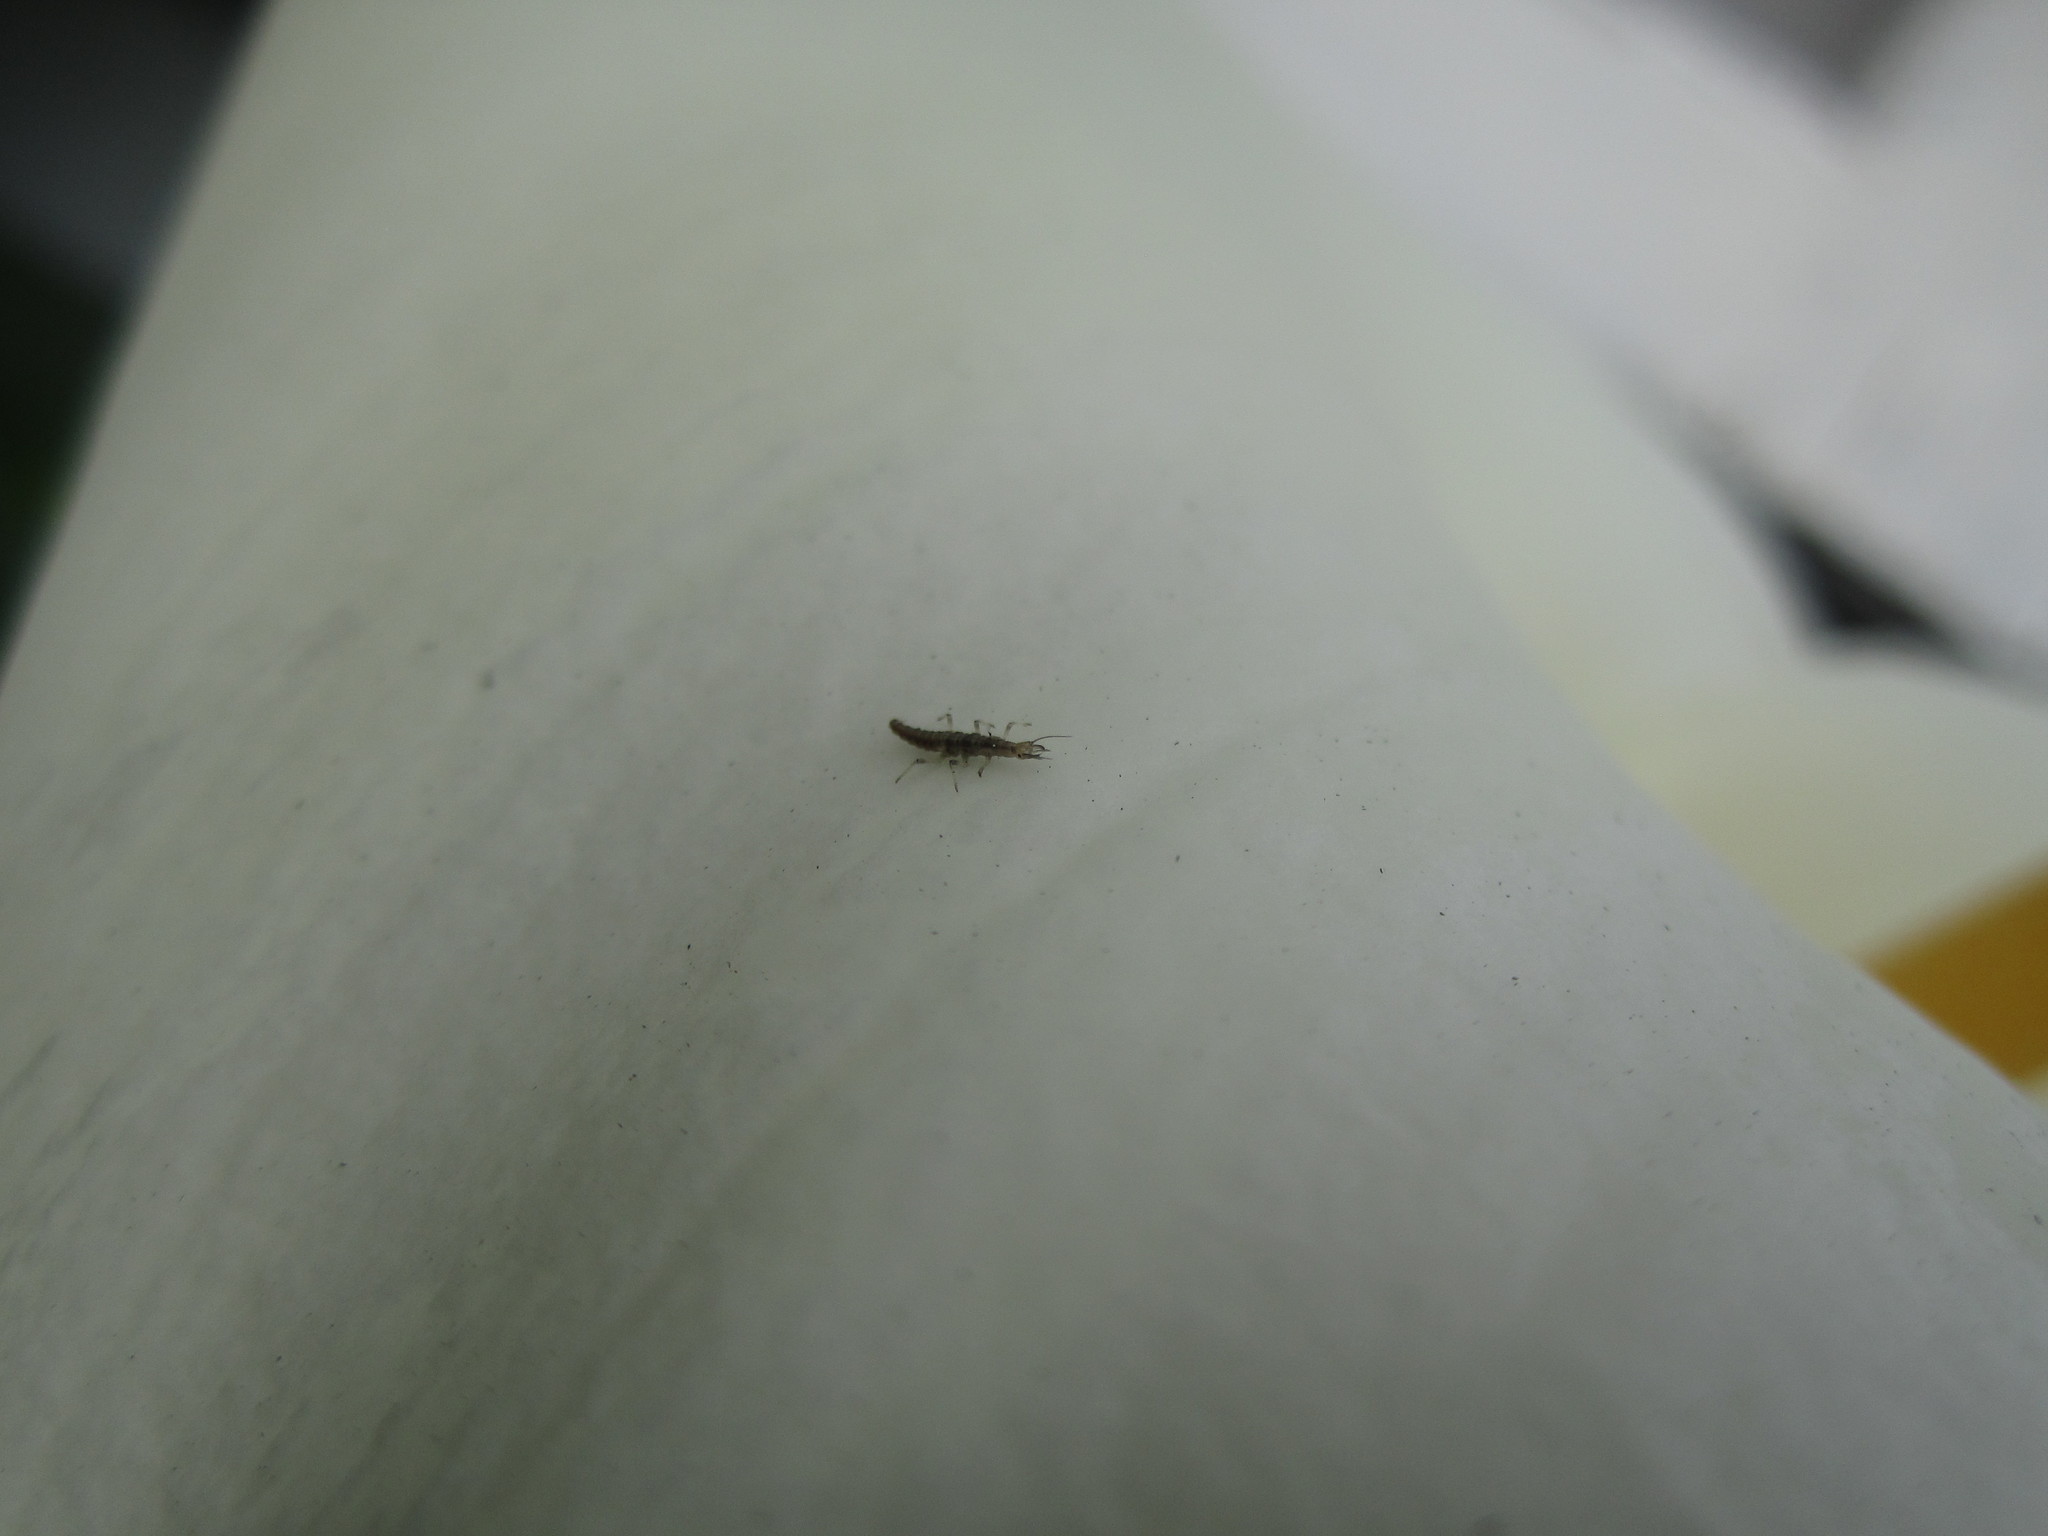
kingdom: Animalia
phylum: Arthropoda
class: Insecta
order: Neuroptera
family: Hemerobiidae
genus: Micromus
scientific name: Micromus tasmaniae
